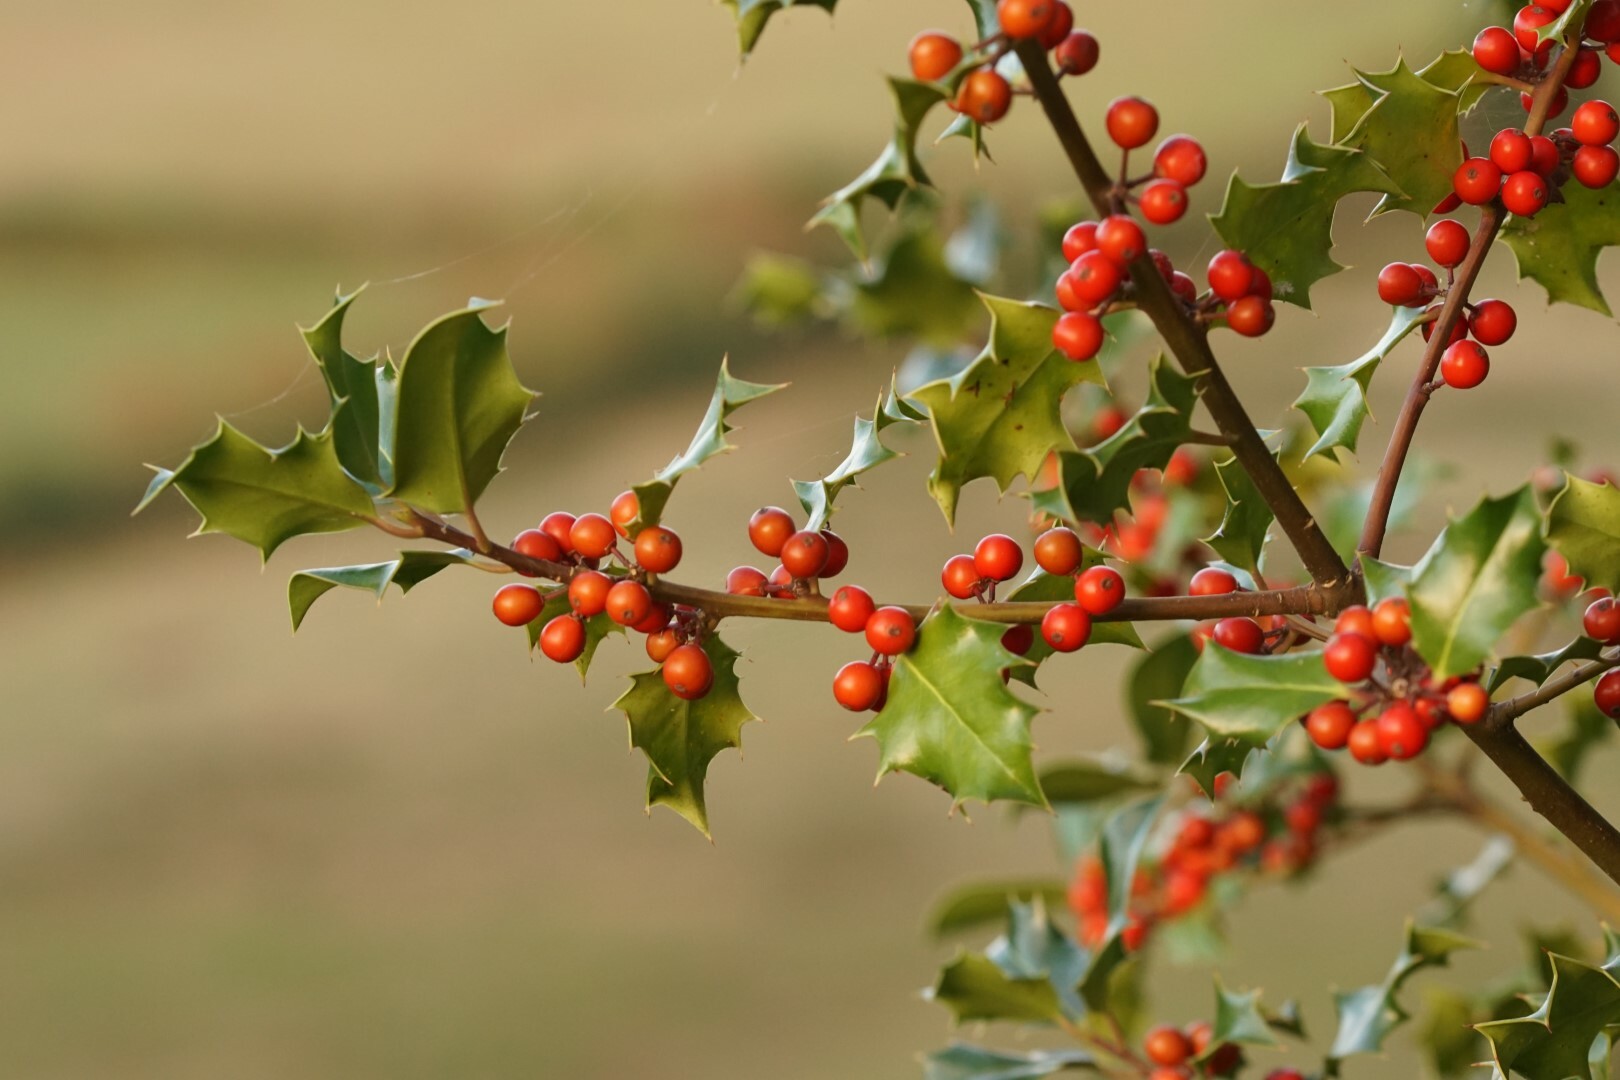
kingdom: Plantae
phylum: Tracheophyta
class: Magnoliopsida
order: Aquifoliales
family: Aquifoliaceae
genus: Ilex
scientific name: Ilex aquifolium
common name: English holly
